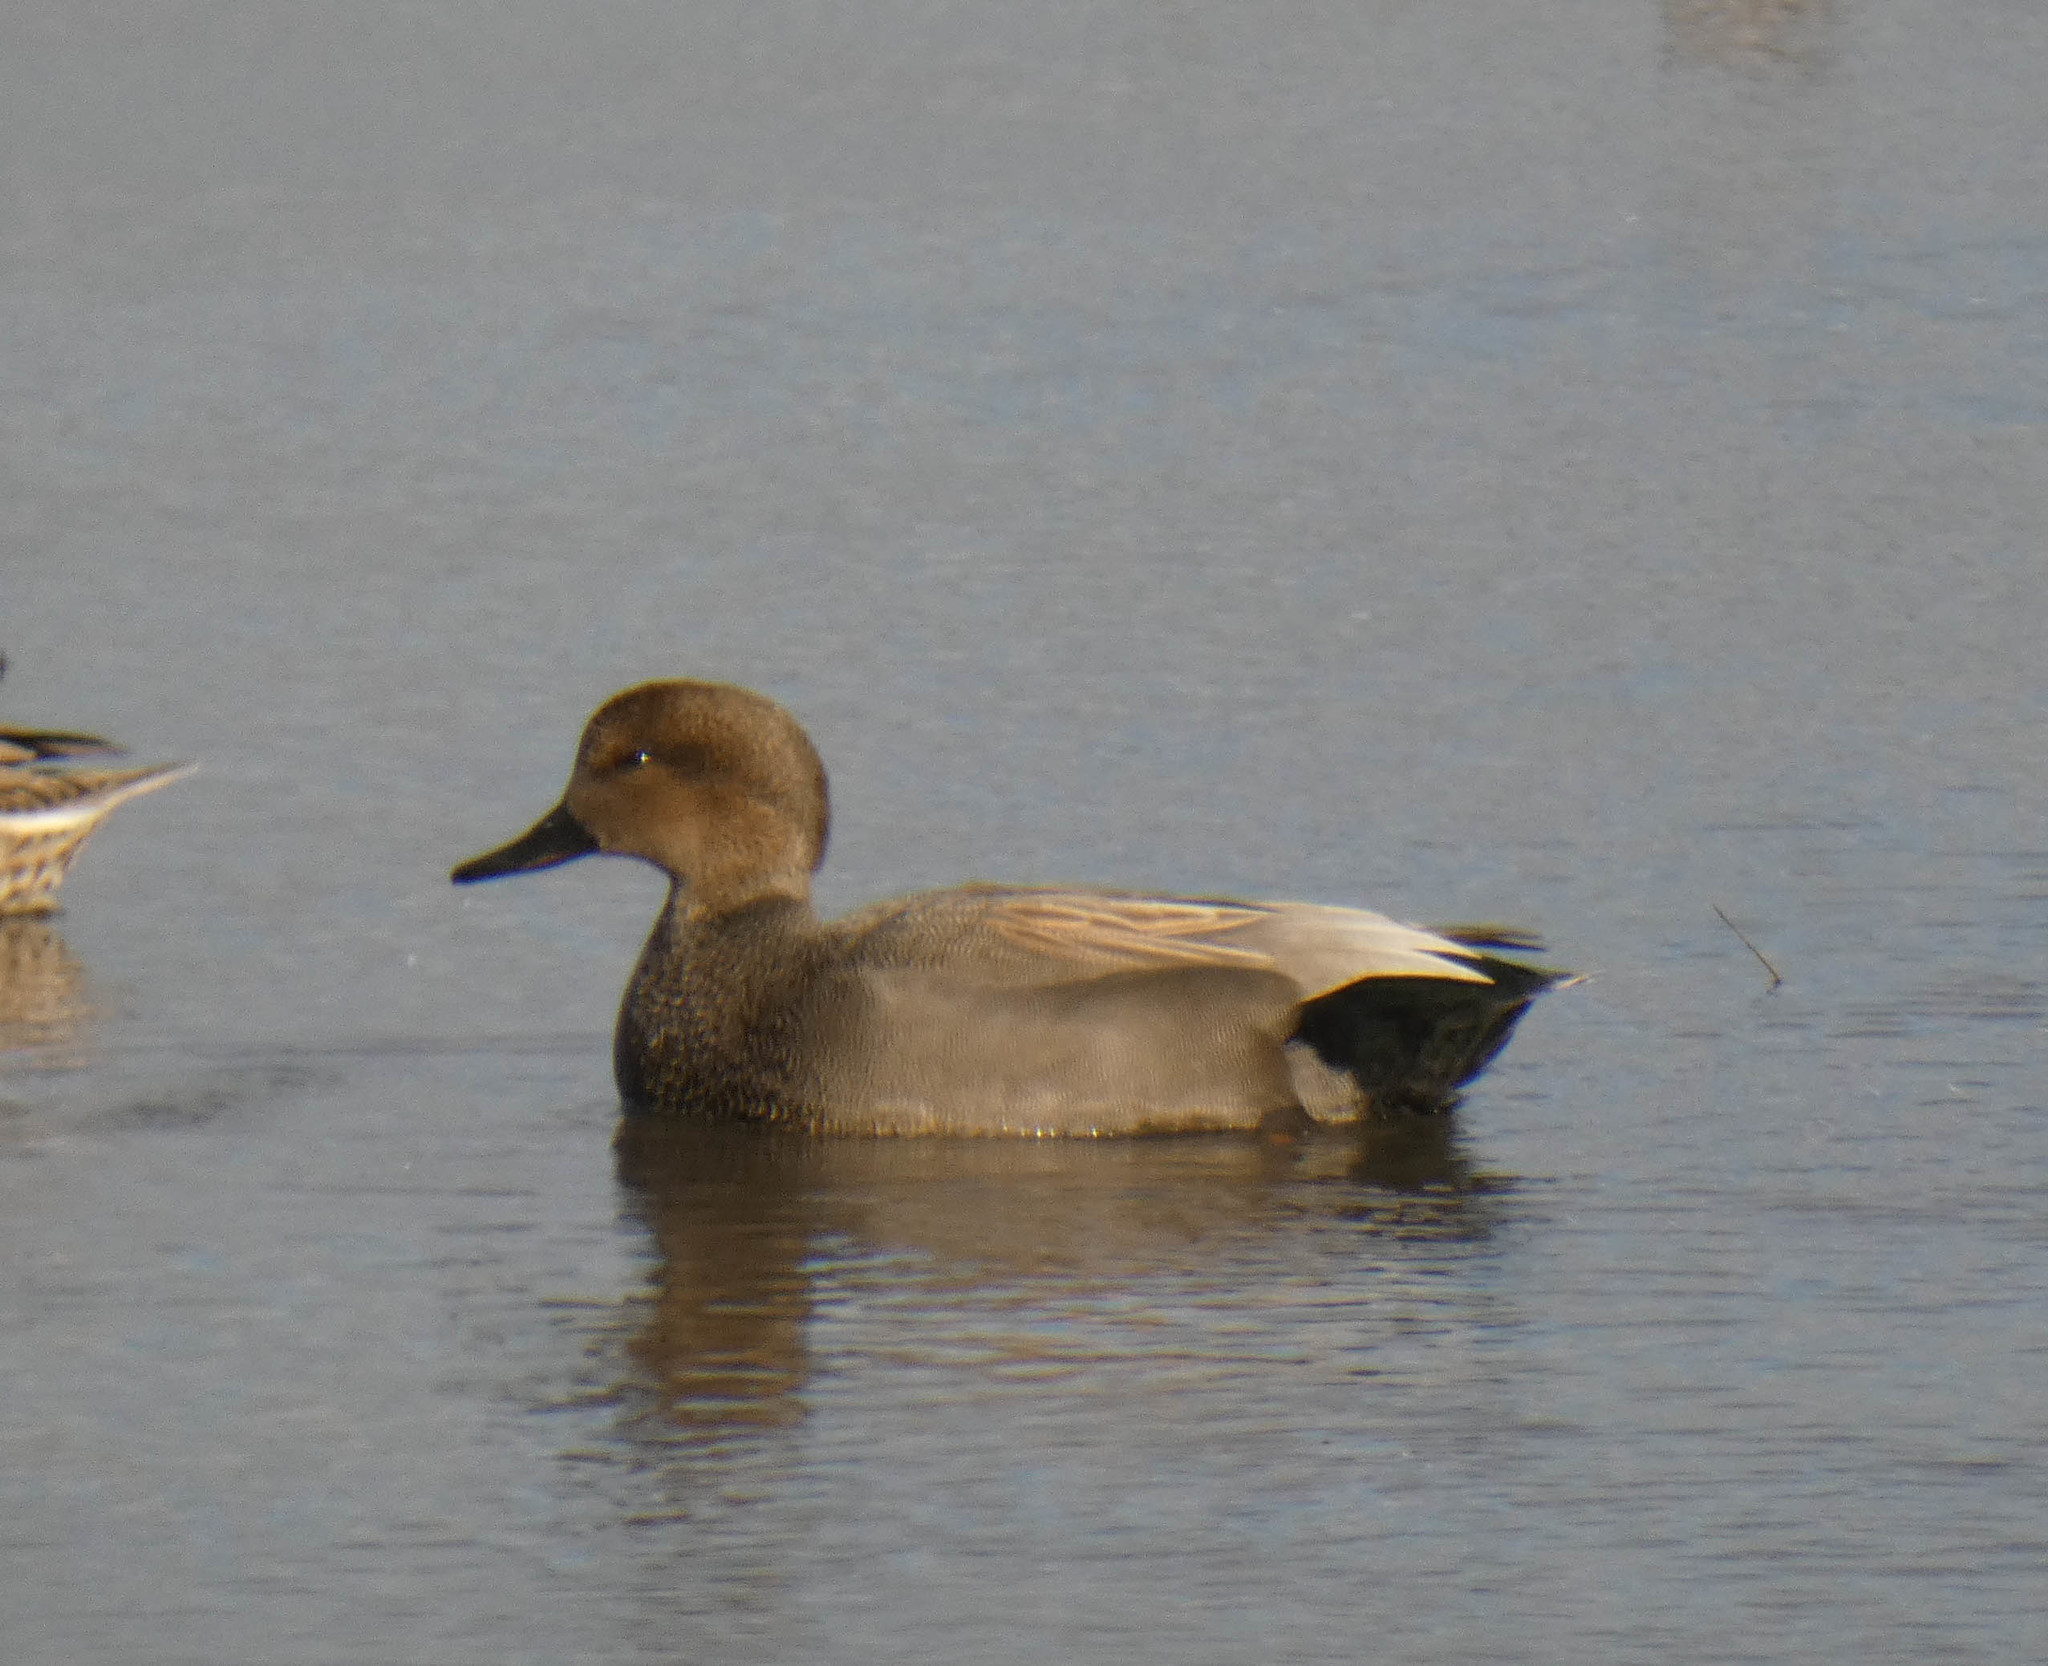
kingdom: Animalia
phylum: Chordata
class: Aves
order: Anseriformes
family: Anatidae
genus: Mareca
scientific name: Mareca strepera
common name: Gadwall
